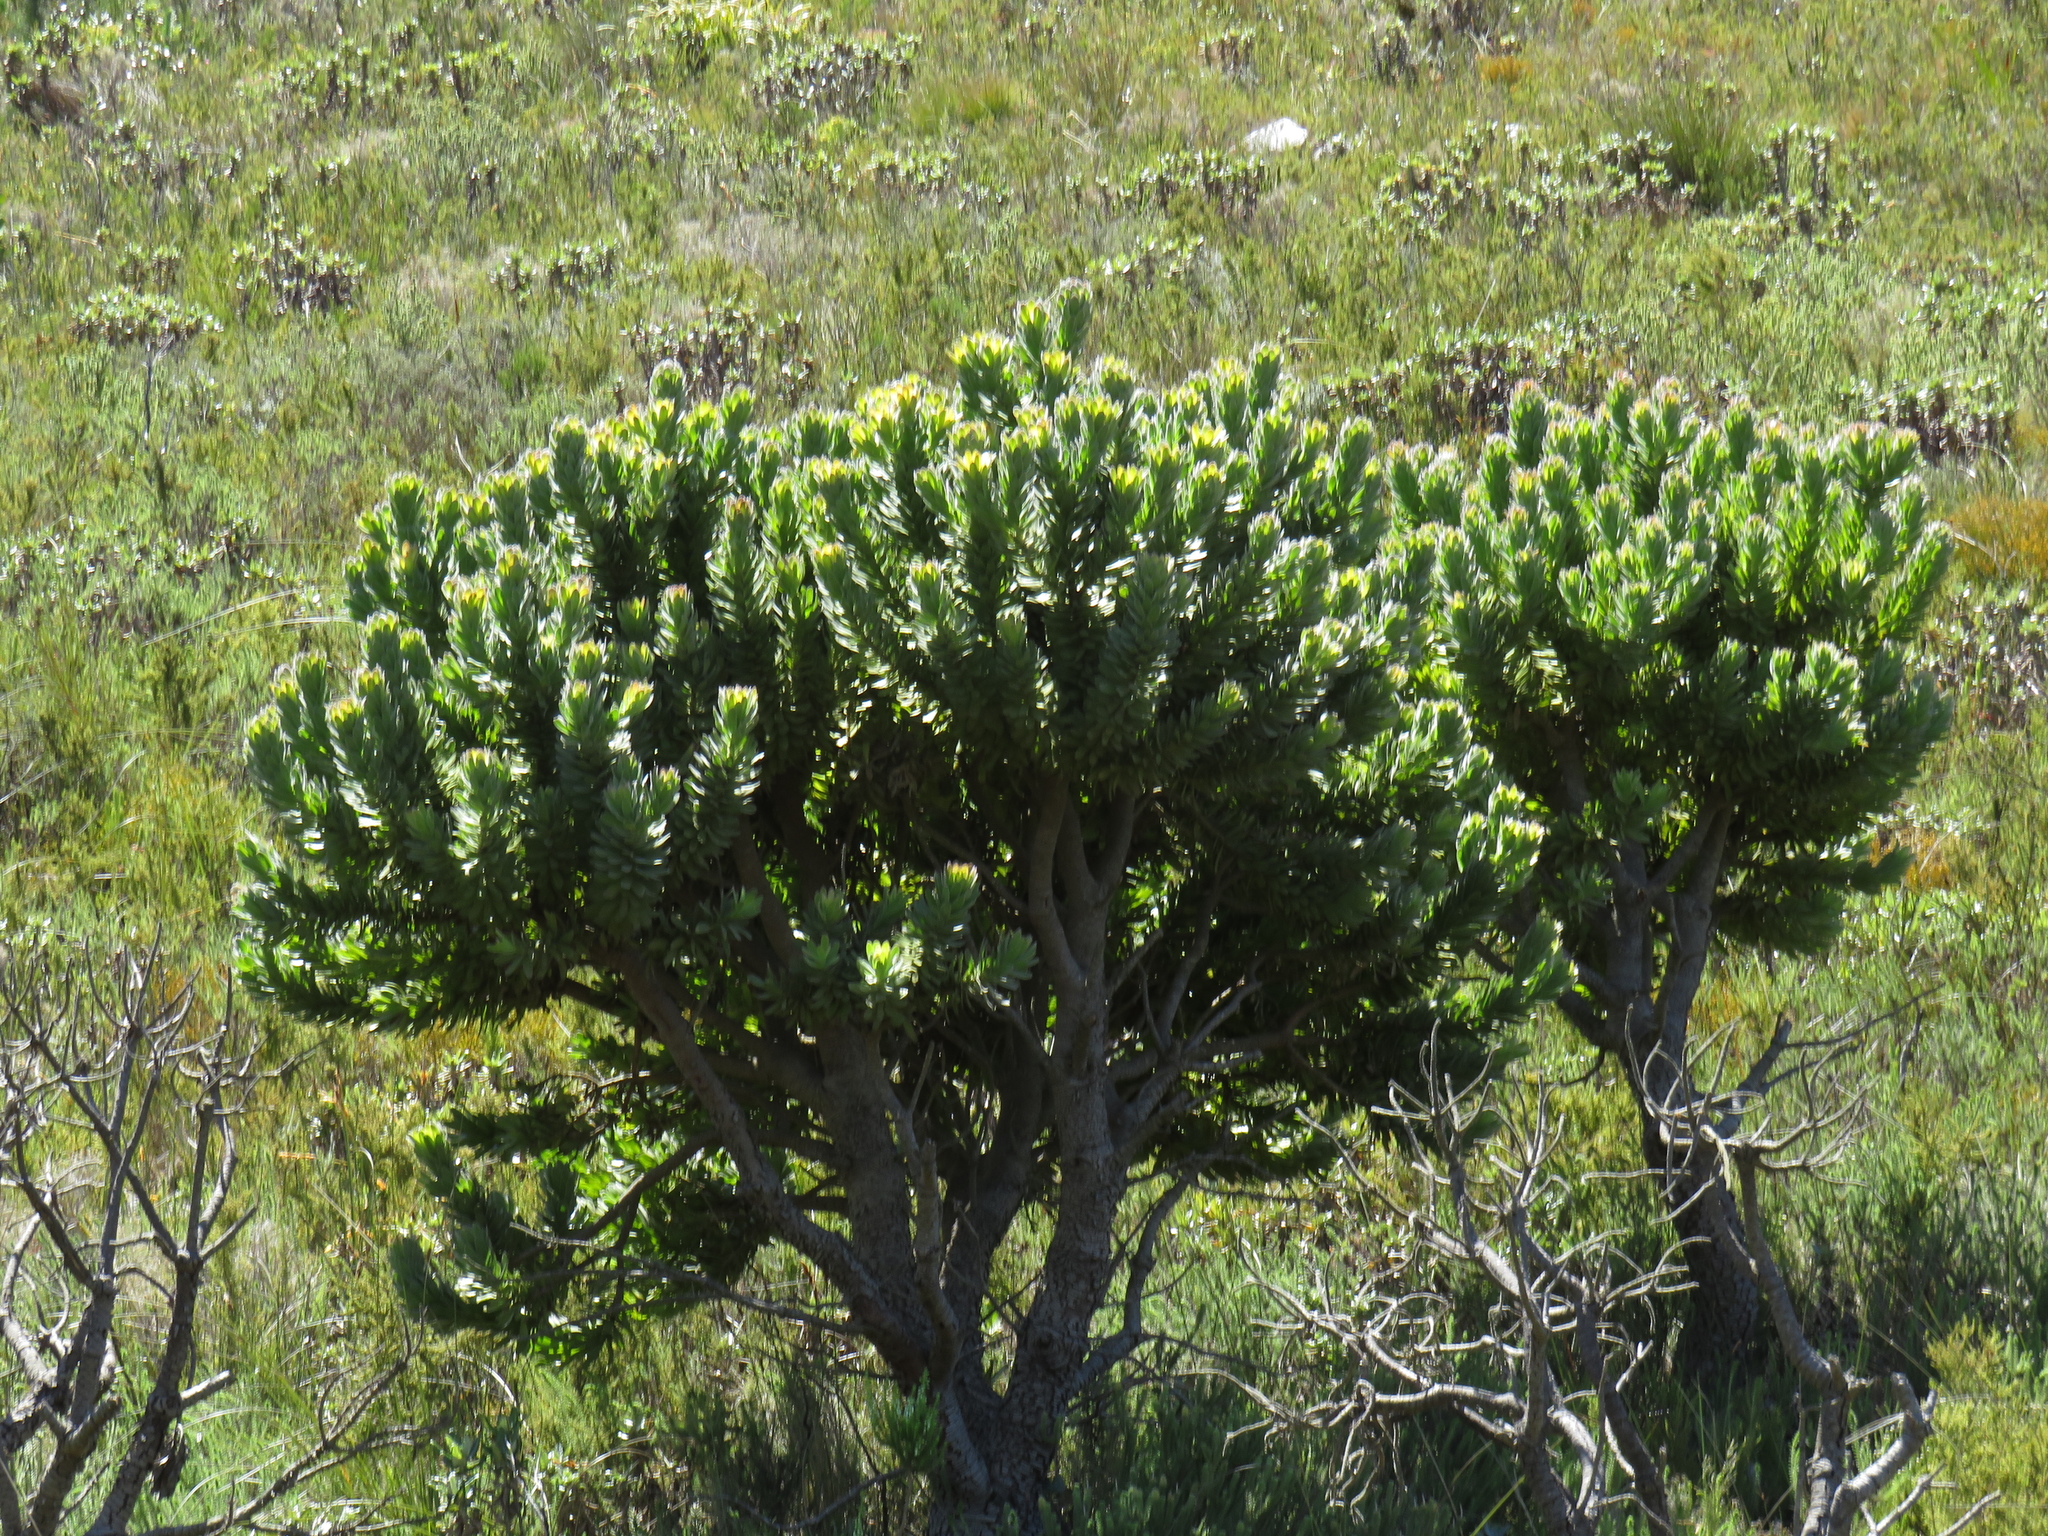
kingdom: Plantae
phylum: Tracheophyta
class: Magnoliopsida
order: Proteales
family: Proteaceae
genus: Mimetes
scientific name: Mimetes fimbriifolius
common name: Fringed bottlebrush
